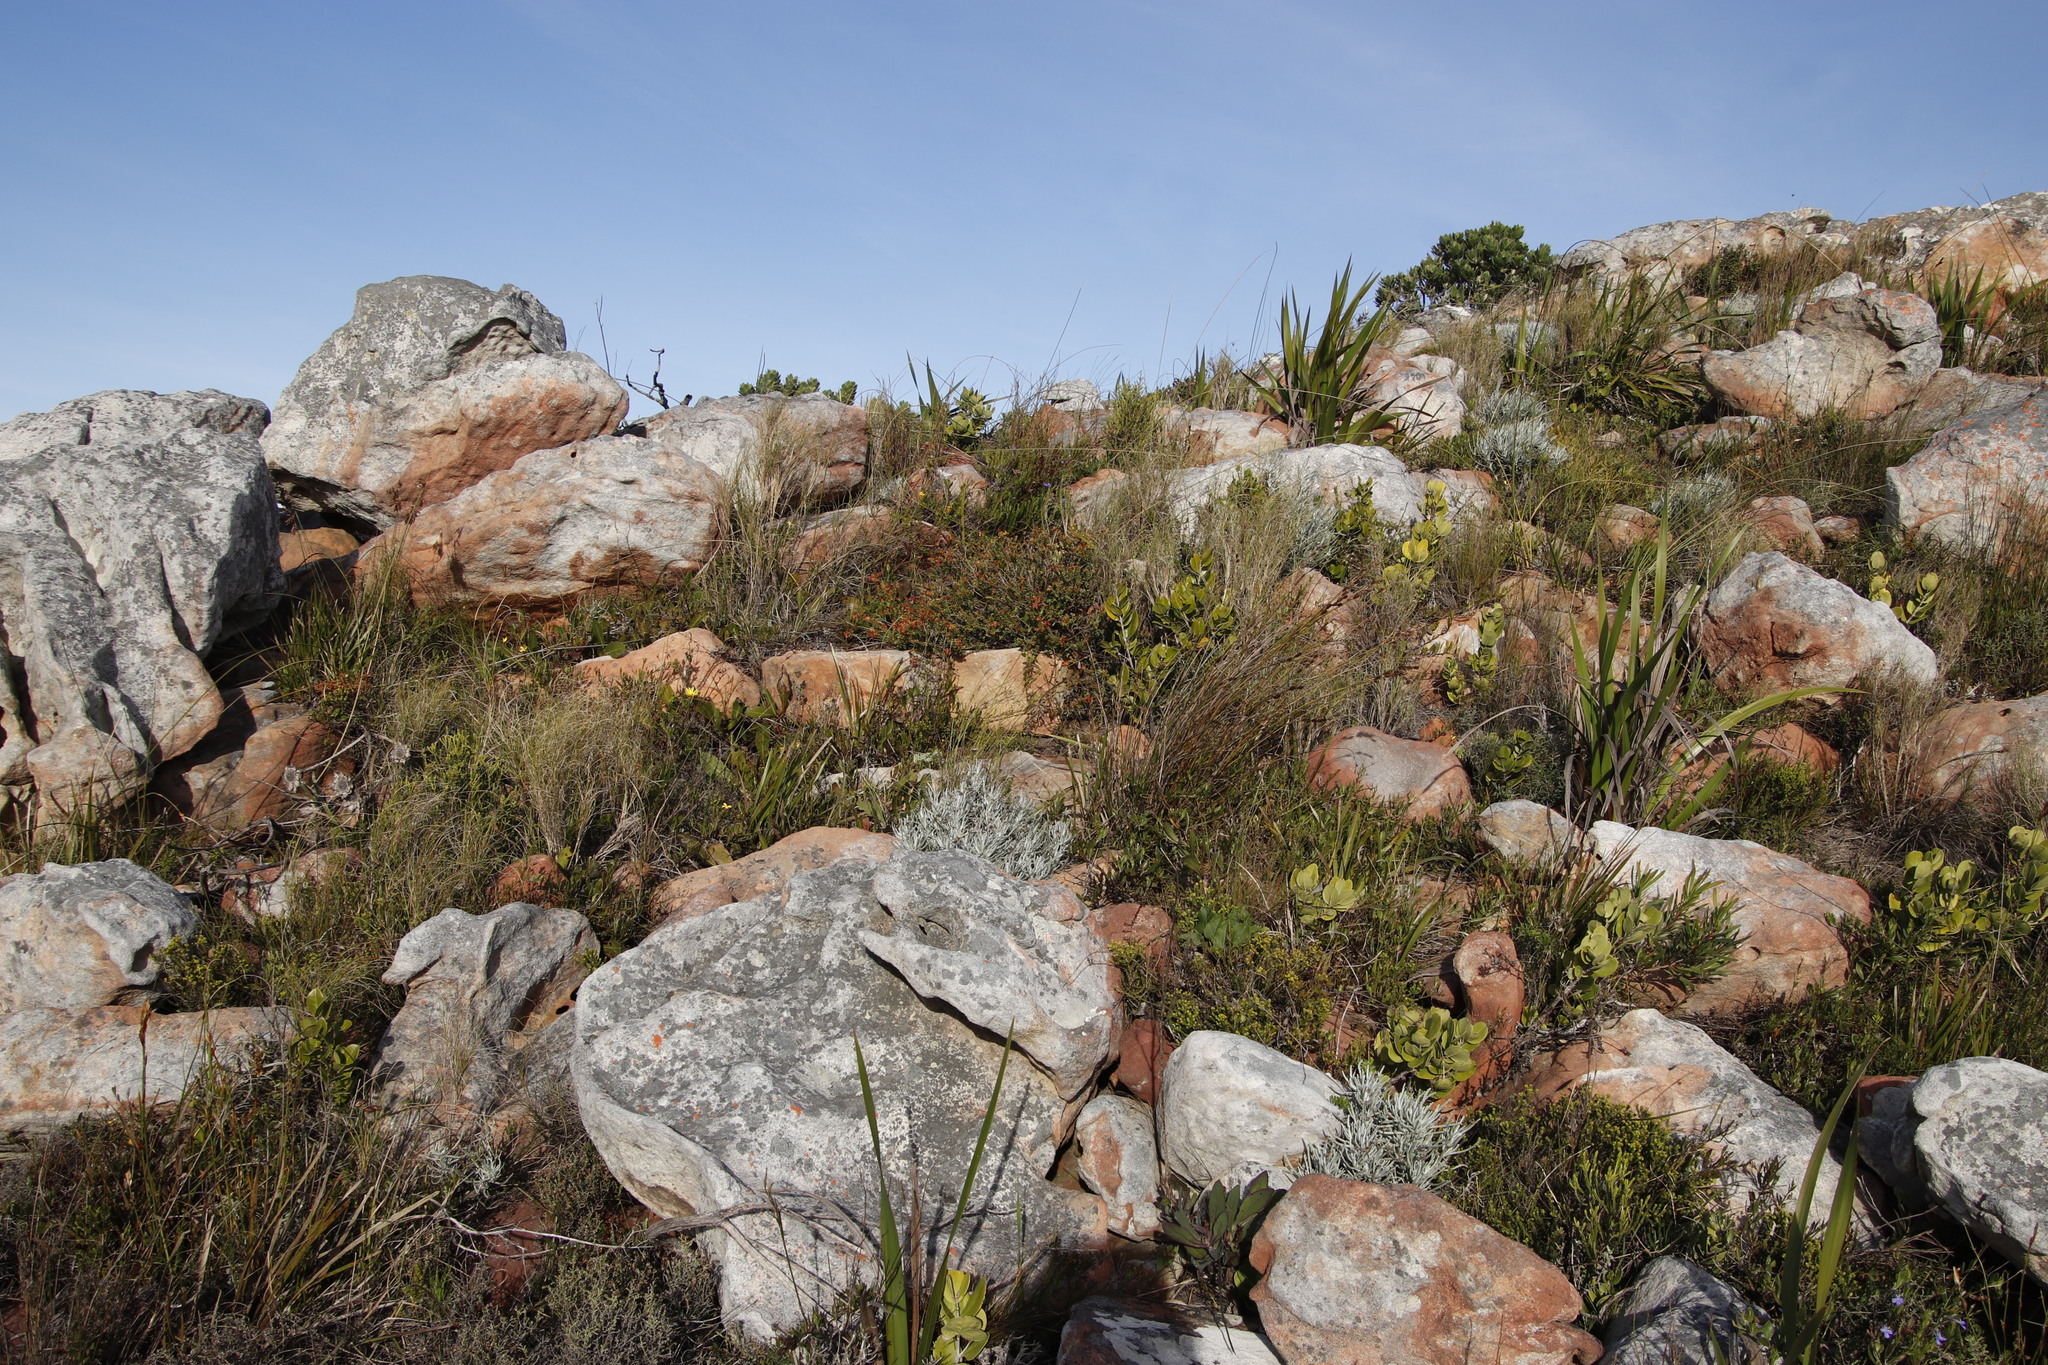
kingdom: Plantae
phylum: Tracheophyta
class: Magnoliopsida
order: Myrtales
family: Penaeaceae
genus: Penaea
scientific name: Penaea mucronata
